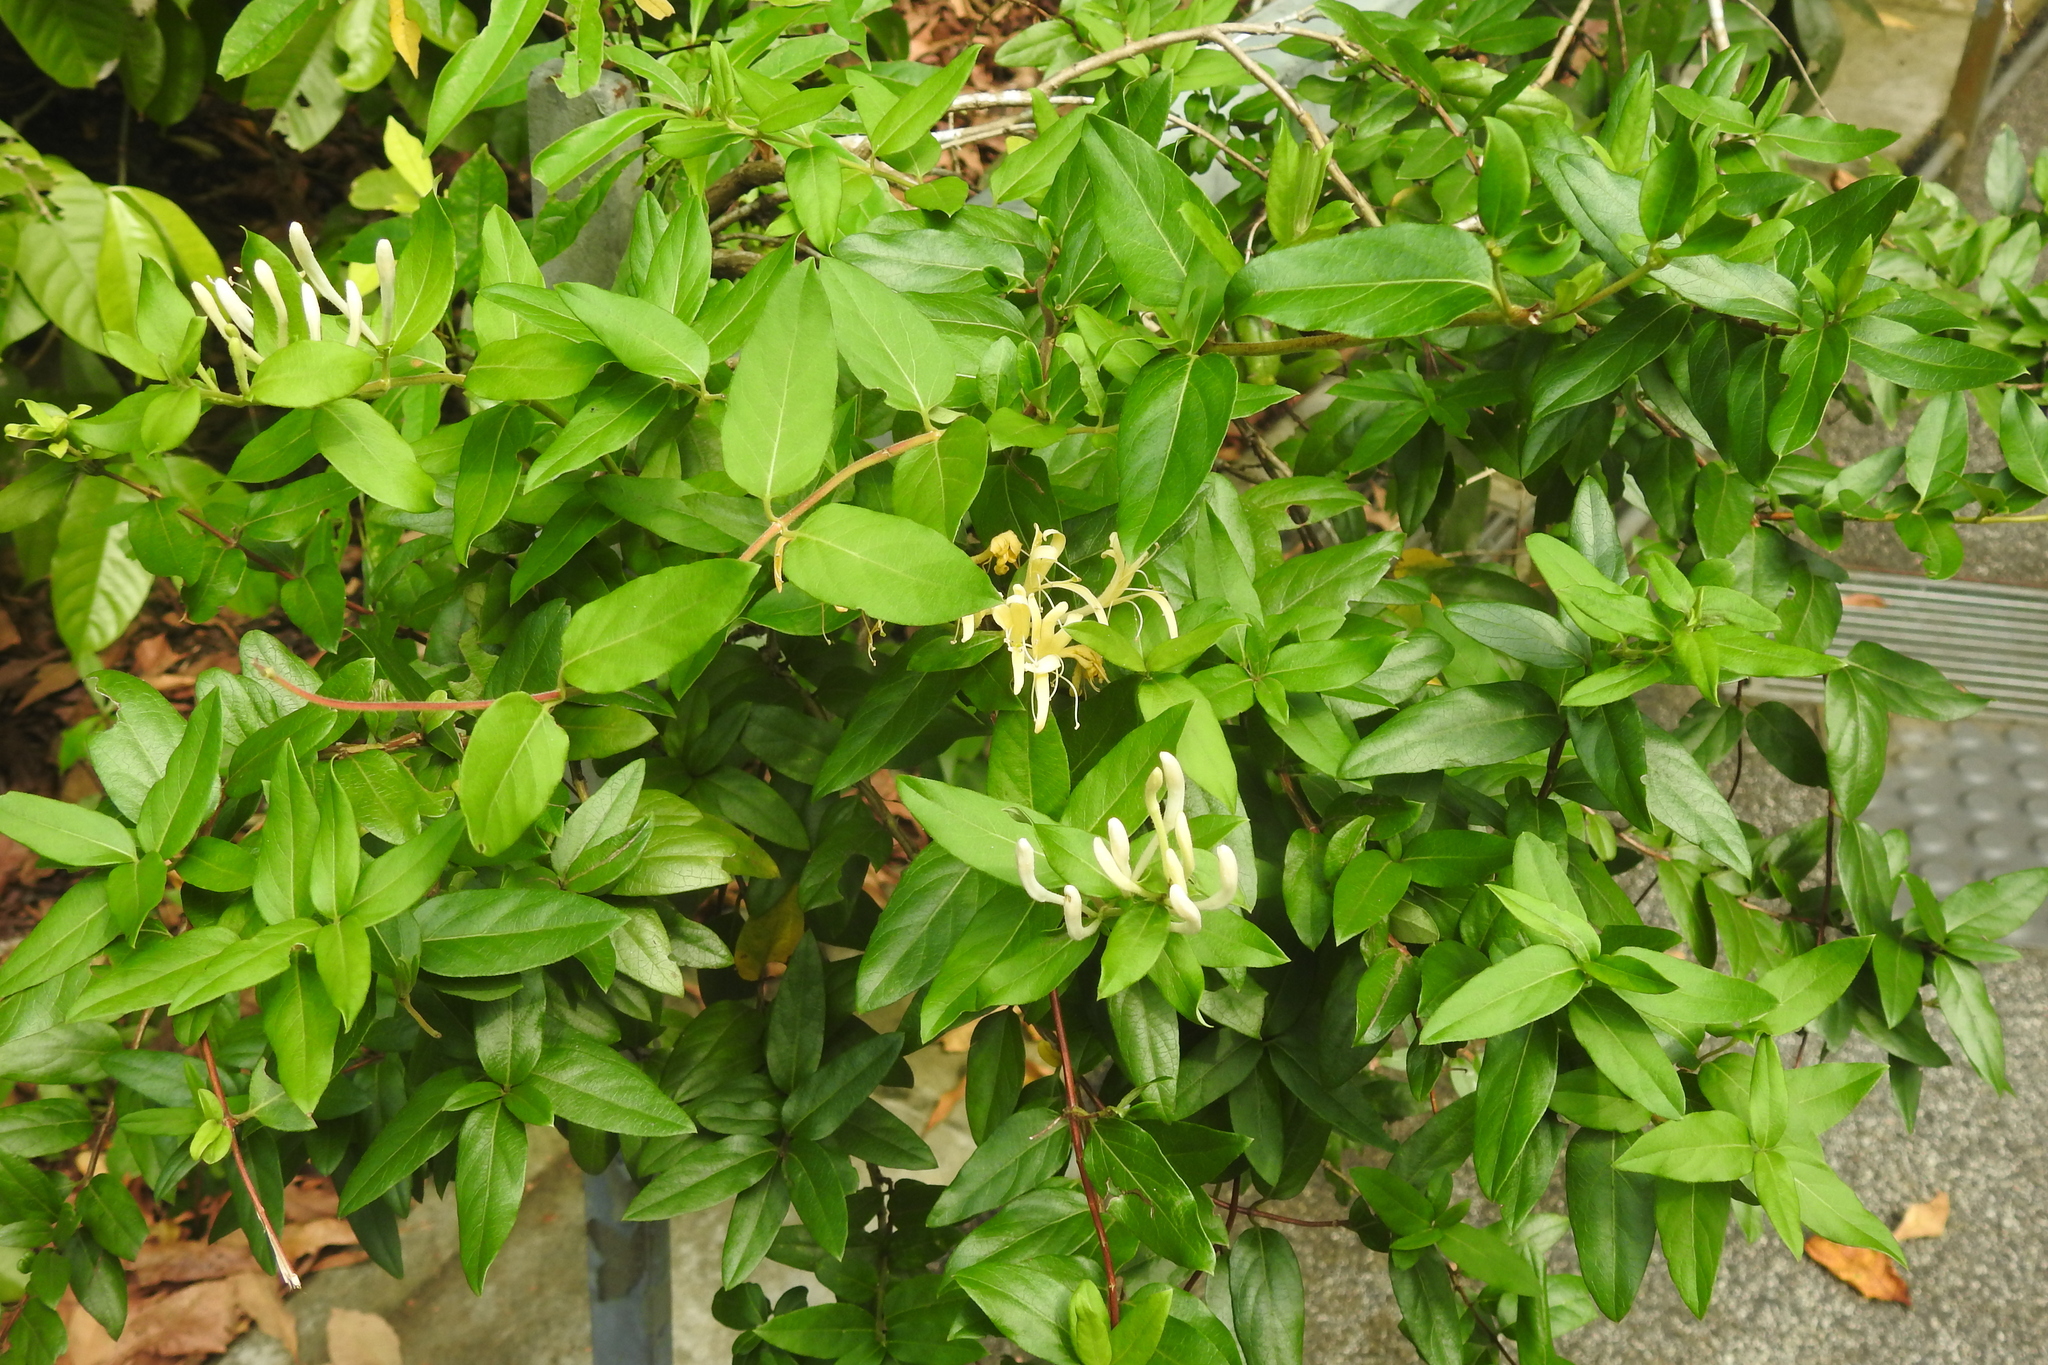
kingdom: Plantae
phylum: Tracheophyta
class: Magnoliopsida
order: Dipsacales
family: Caprifoliaceae
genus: Lonicera
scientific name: Lonicera japonica
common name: Japanese honeysuckle
